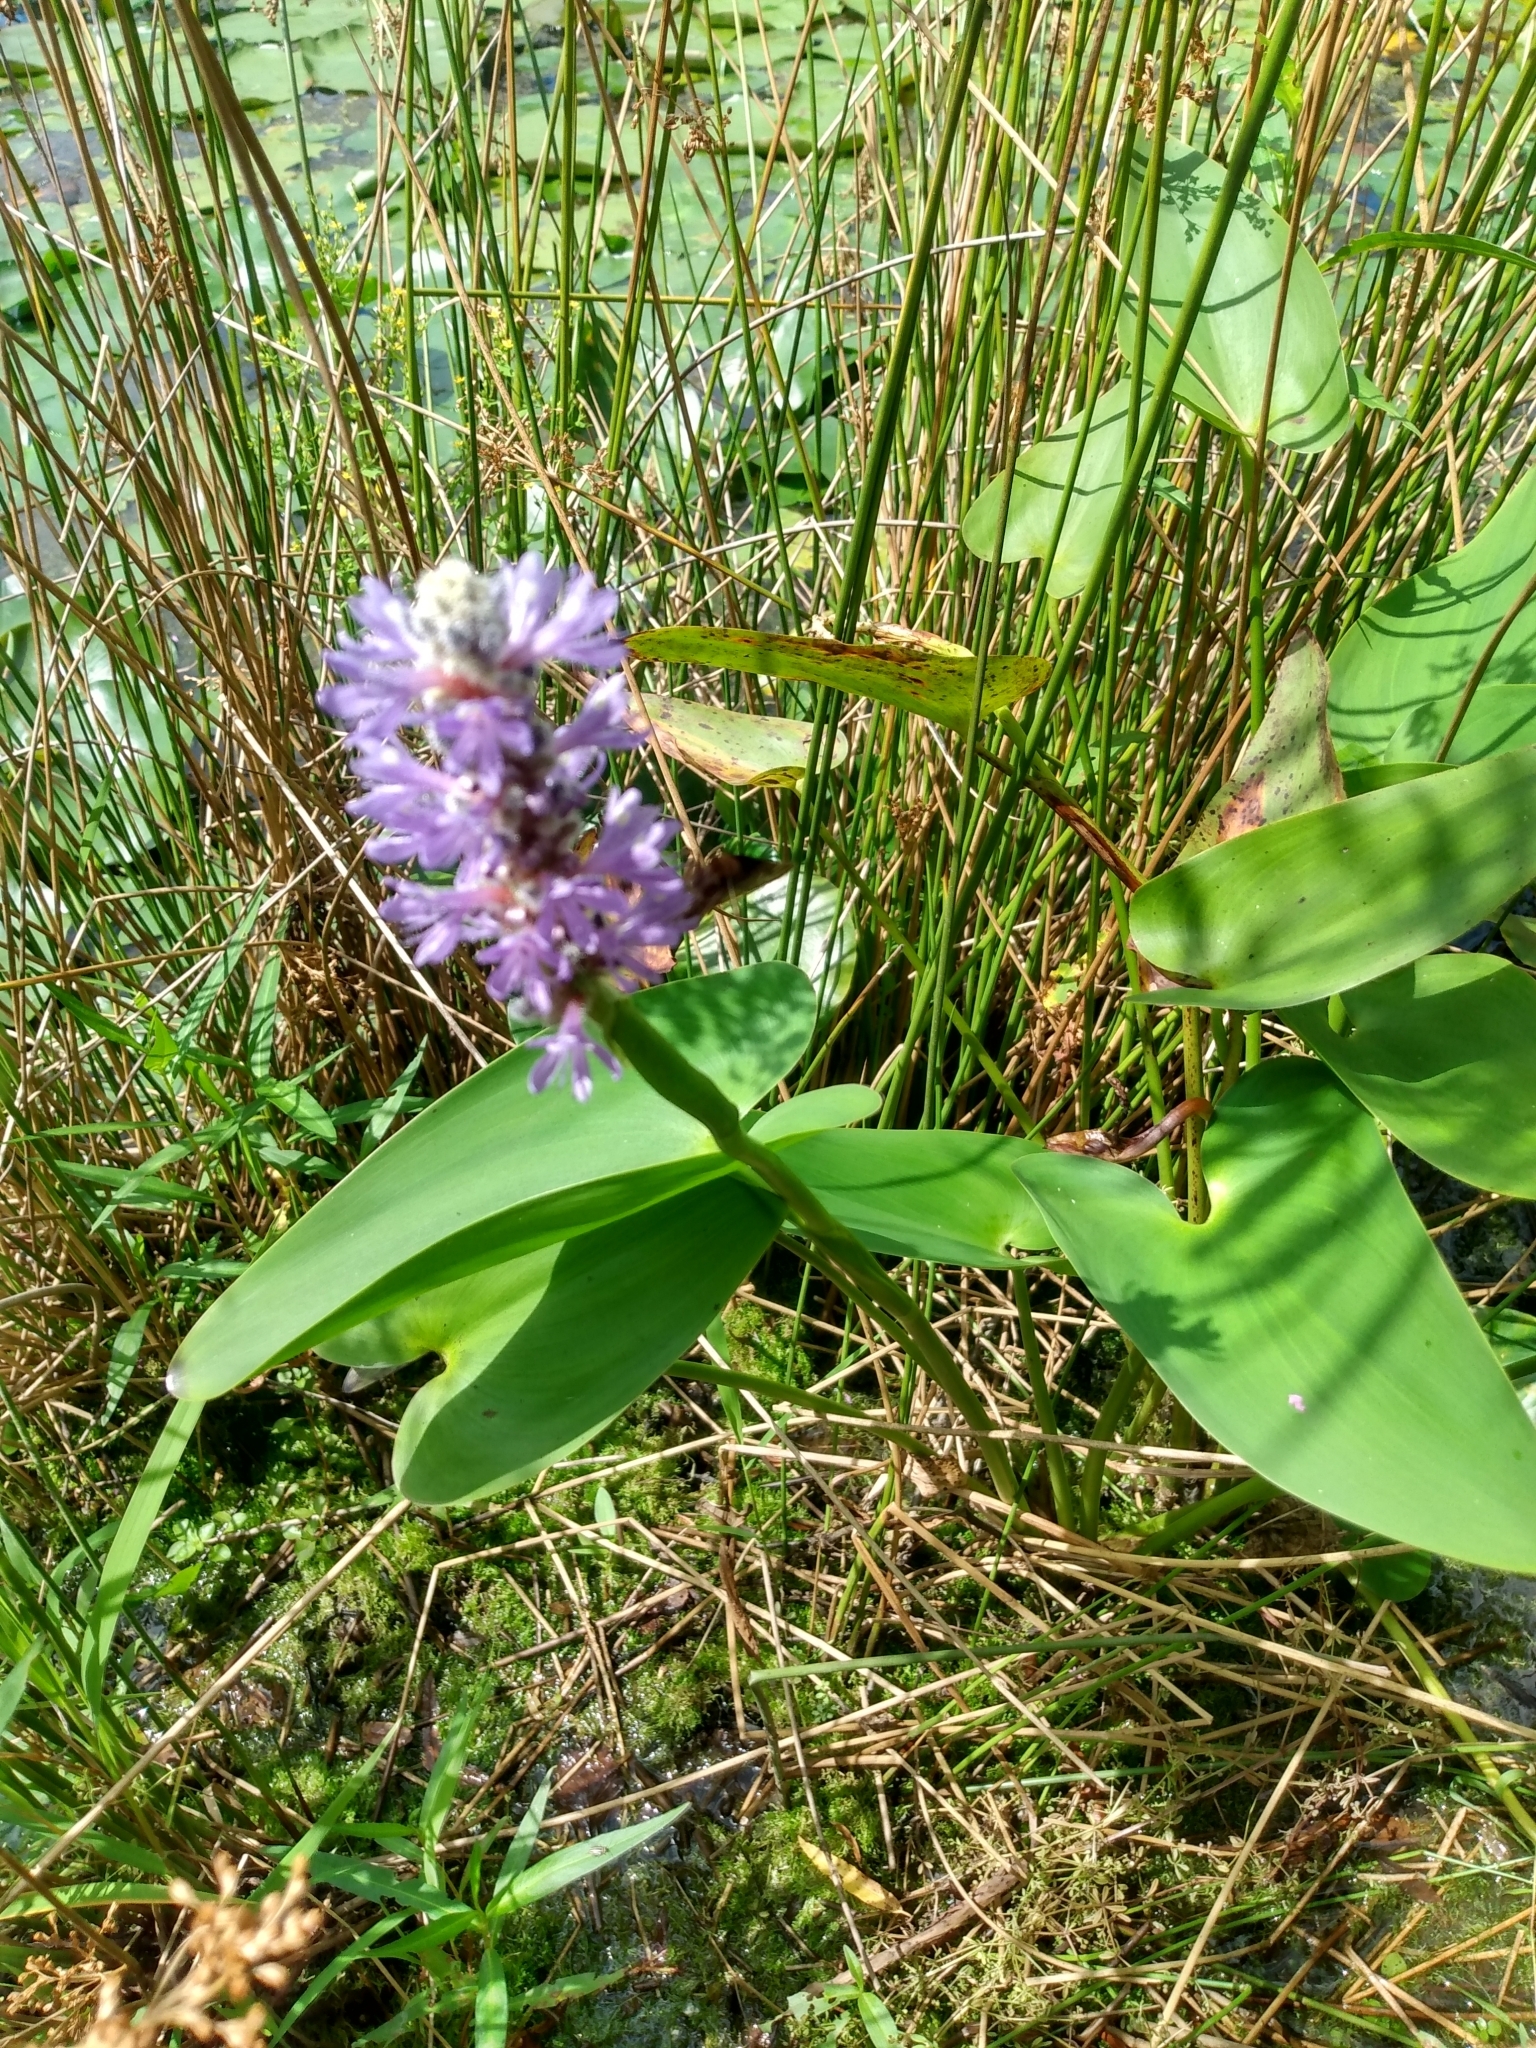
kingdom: Plantae
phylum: Tracheophyta
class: Liliopsida
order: Commelinales
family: Pontederiaceae
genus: Pontederia
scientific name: Pontederia cordata
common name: Pickerelweed
